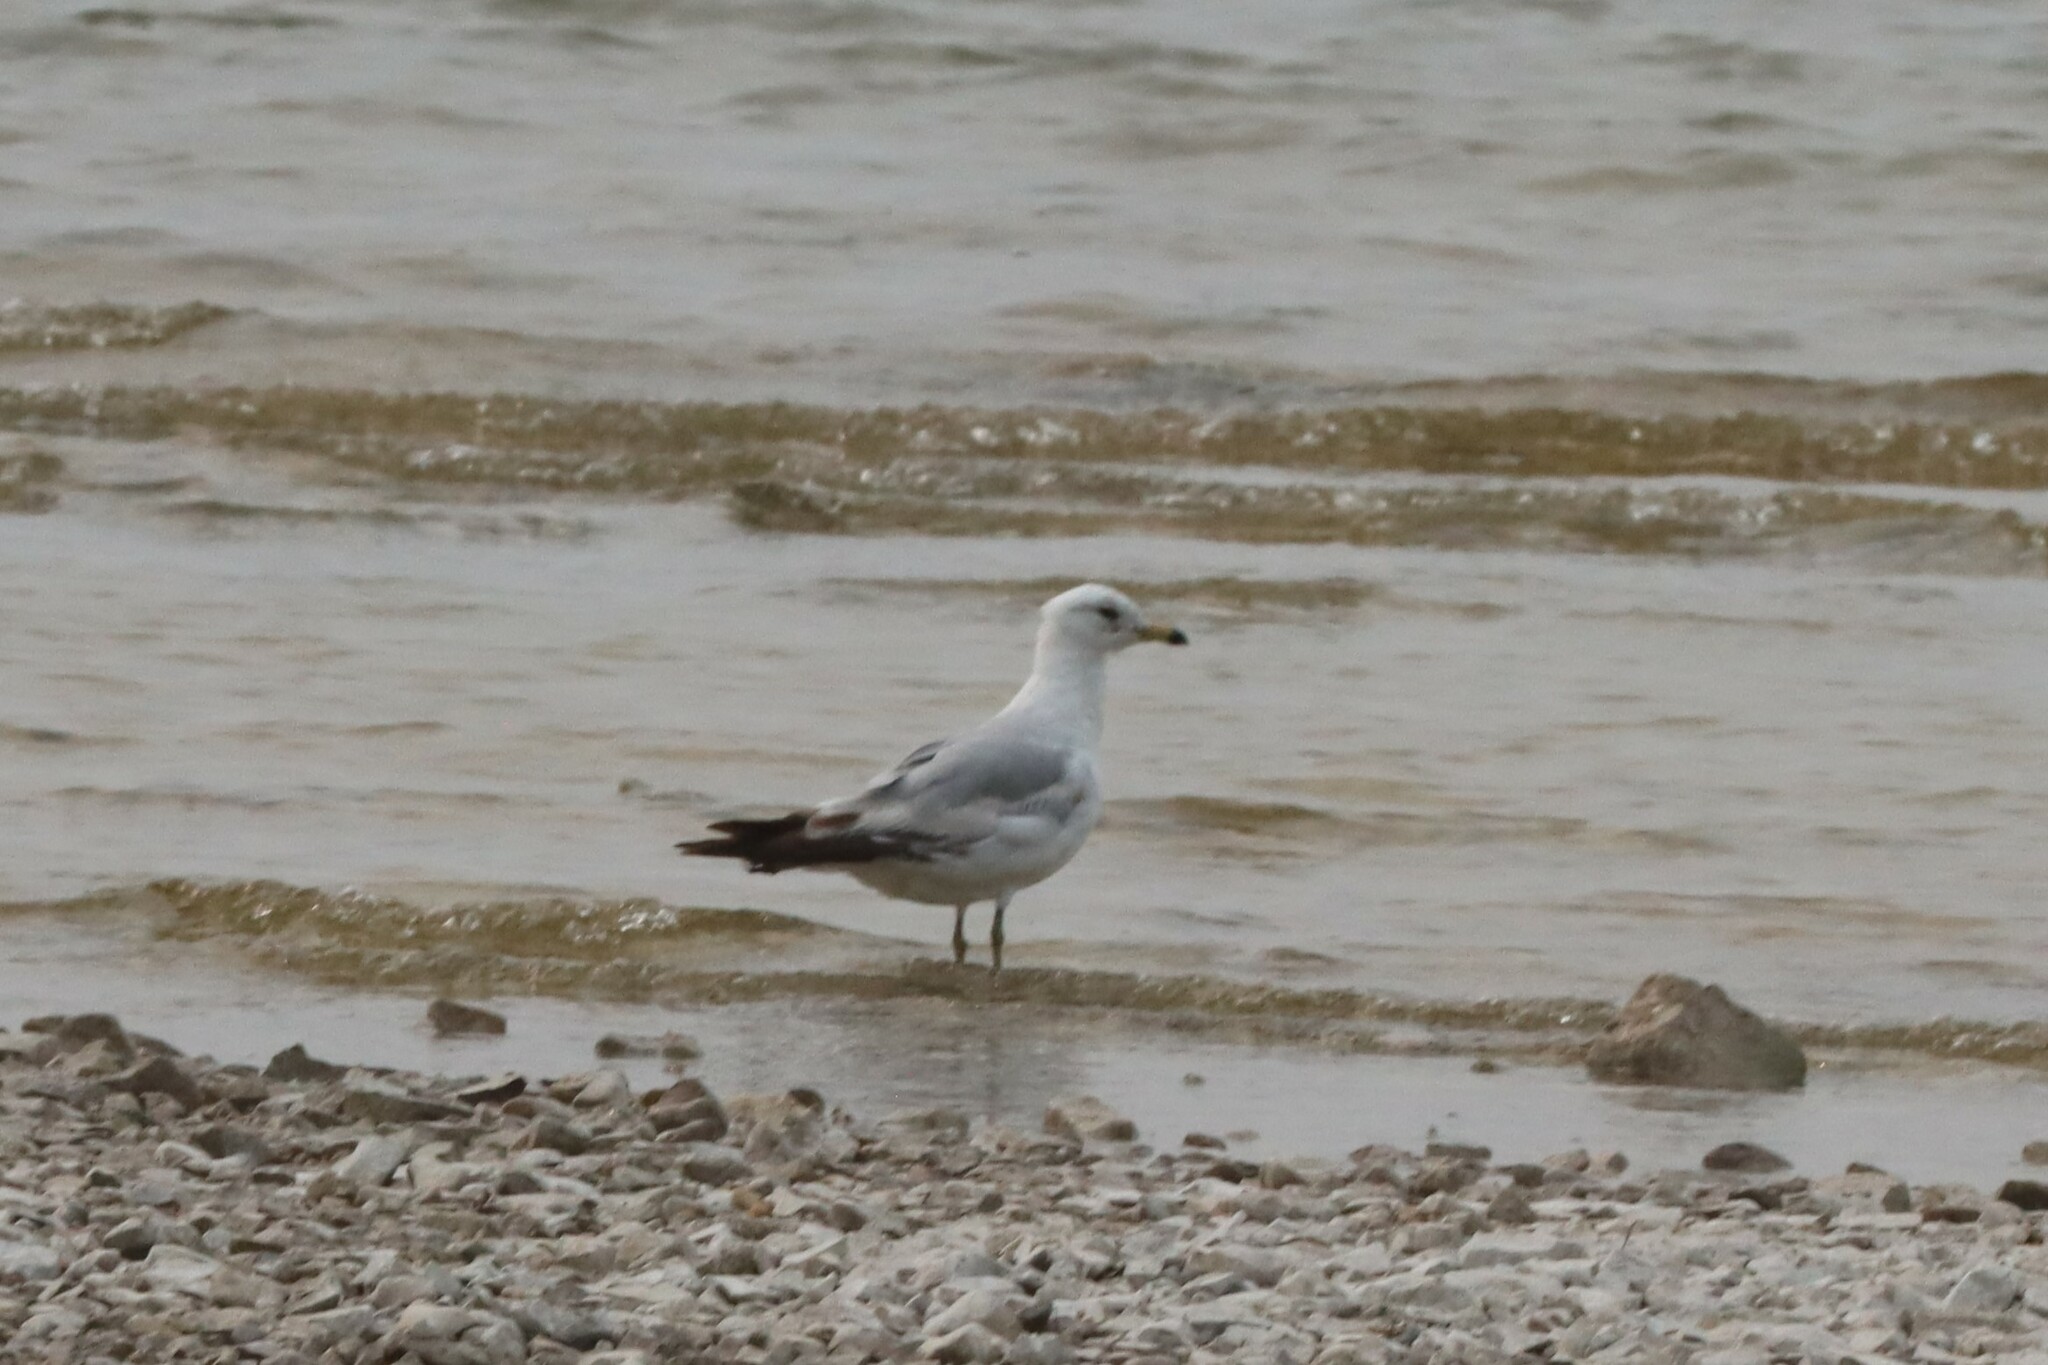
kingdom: Animalia
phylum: Chordata
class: Aves
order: Charadriiformes
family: Laridae
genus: Larus
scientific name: Larus delawarensis
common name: Ring-billed gull
